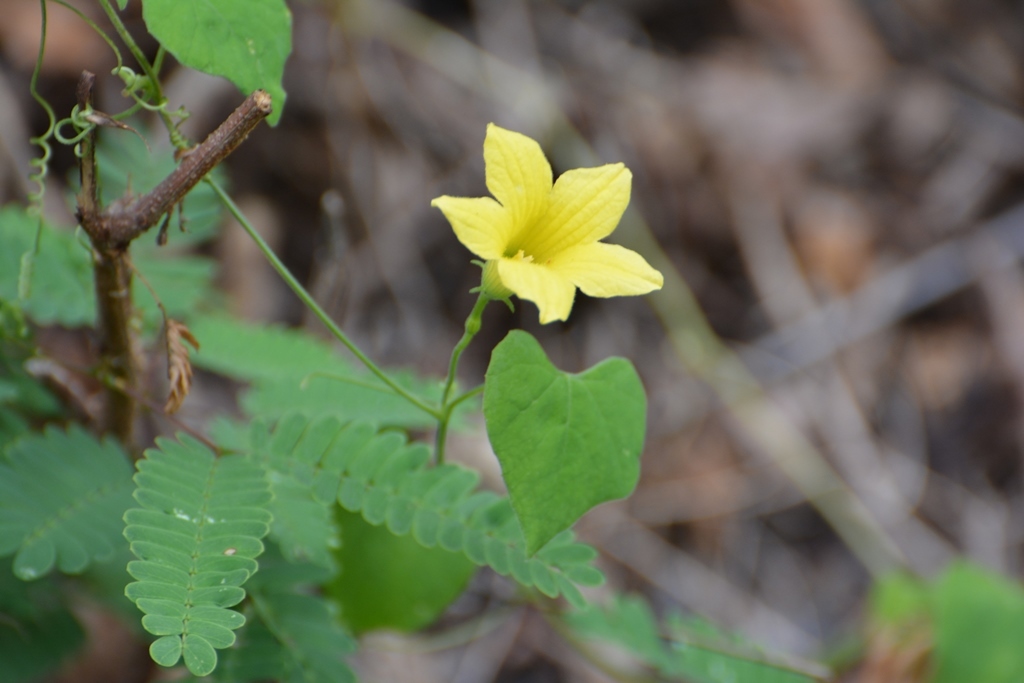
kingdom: Plantae
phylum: Tracheophyta
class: Magnoliopsida
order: Cucurbitales
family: Cucurbitaceae
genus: Schizocarpum
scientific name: Schizocarpum longisepalum
